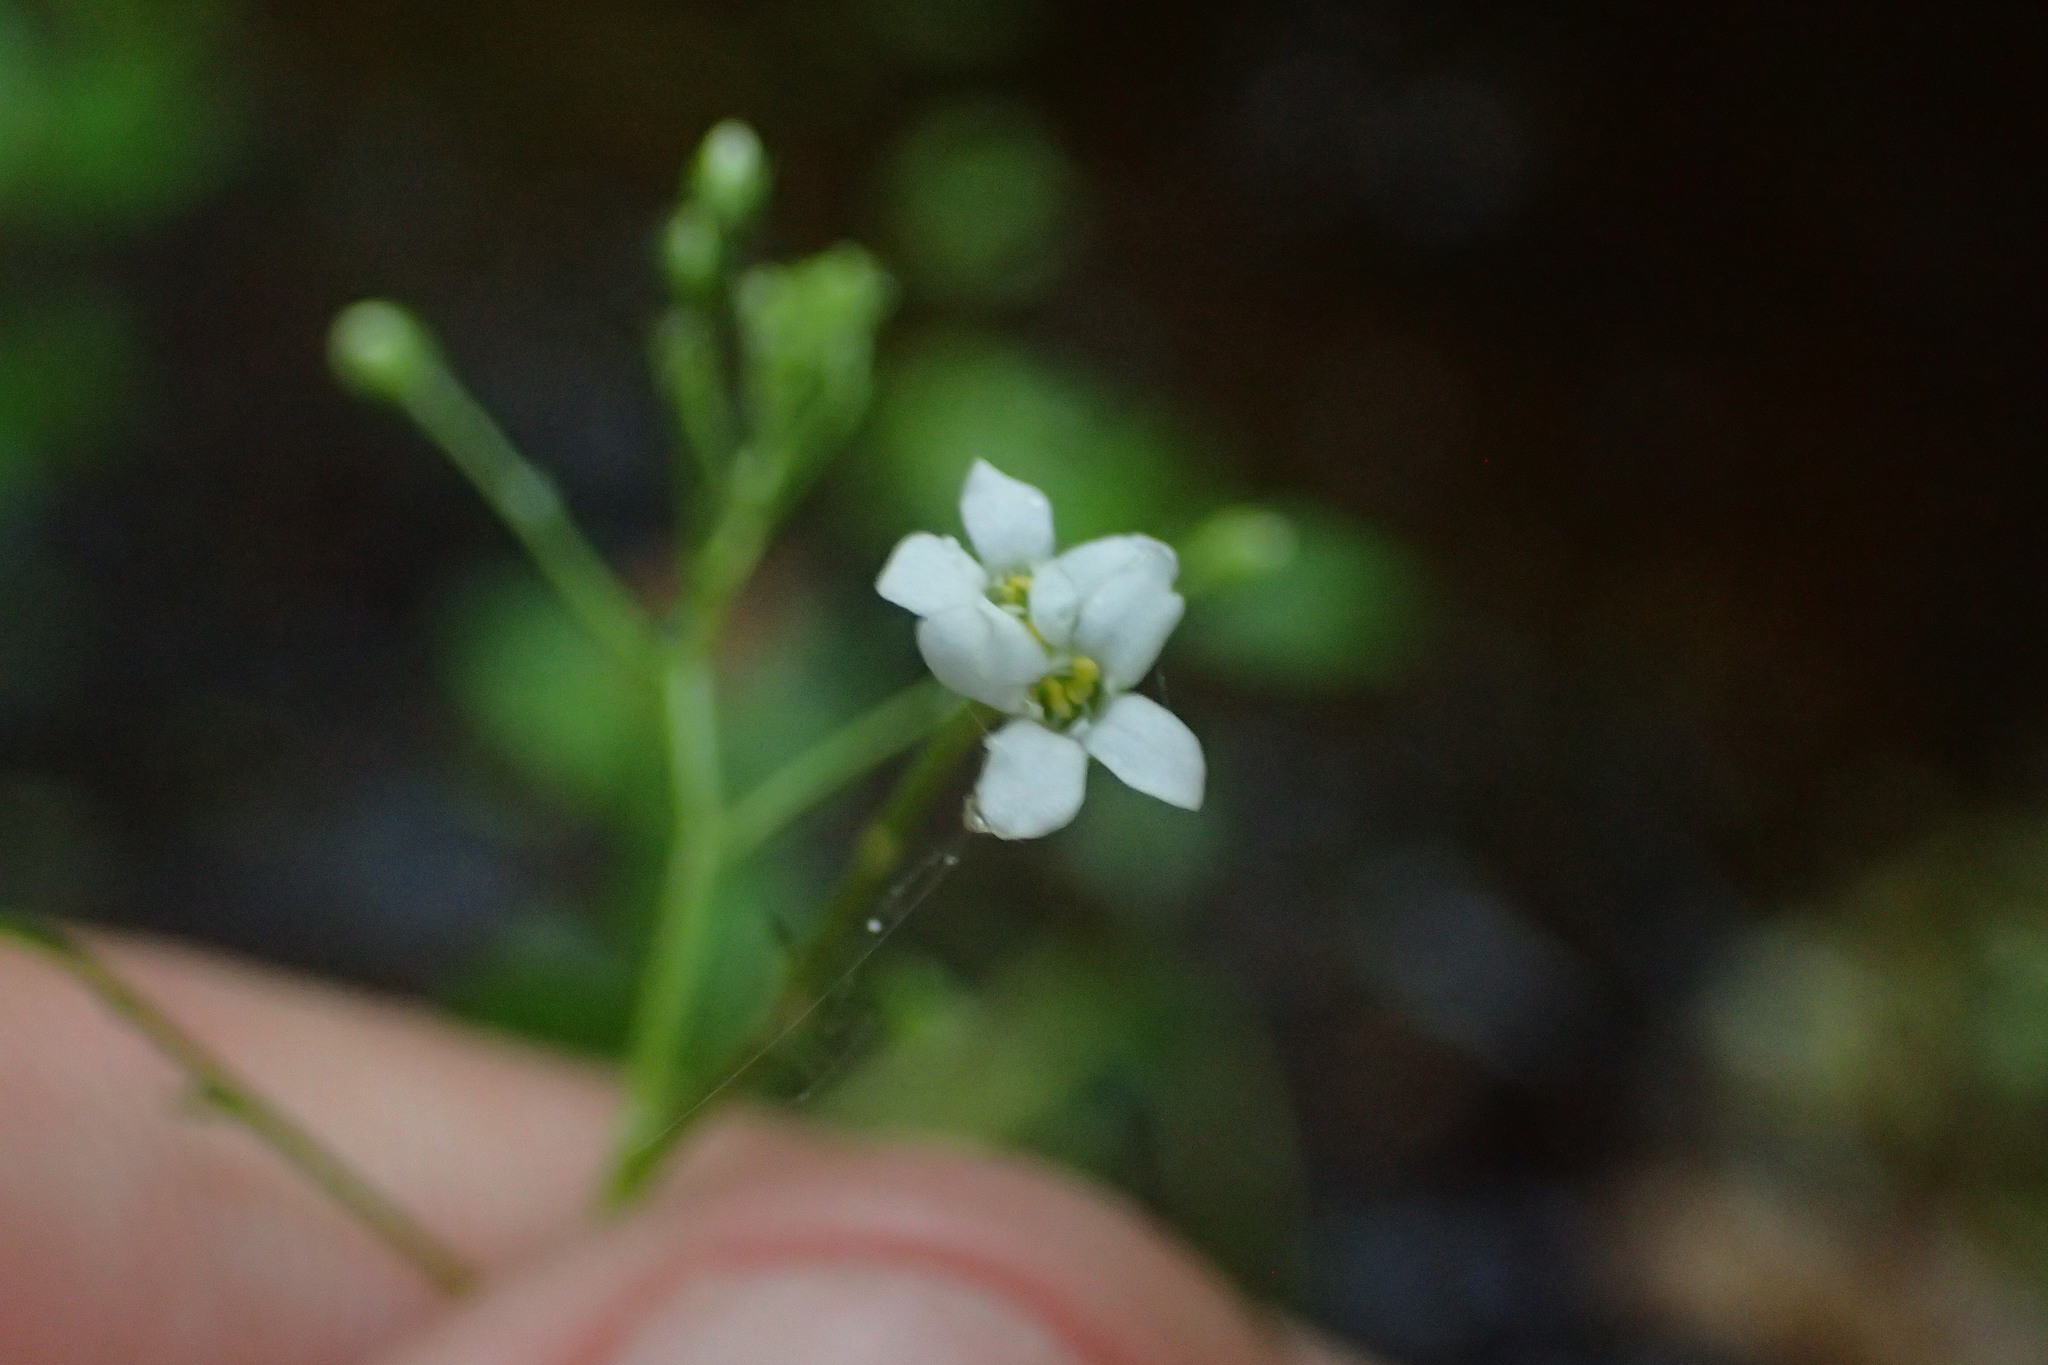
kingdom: Plantae
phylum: Tracheophyta
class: Magnoliopsida
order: Ericales
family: Primulaceae
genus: Samolus
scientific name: Samolus parviflorus
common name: False water pimpernel
